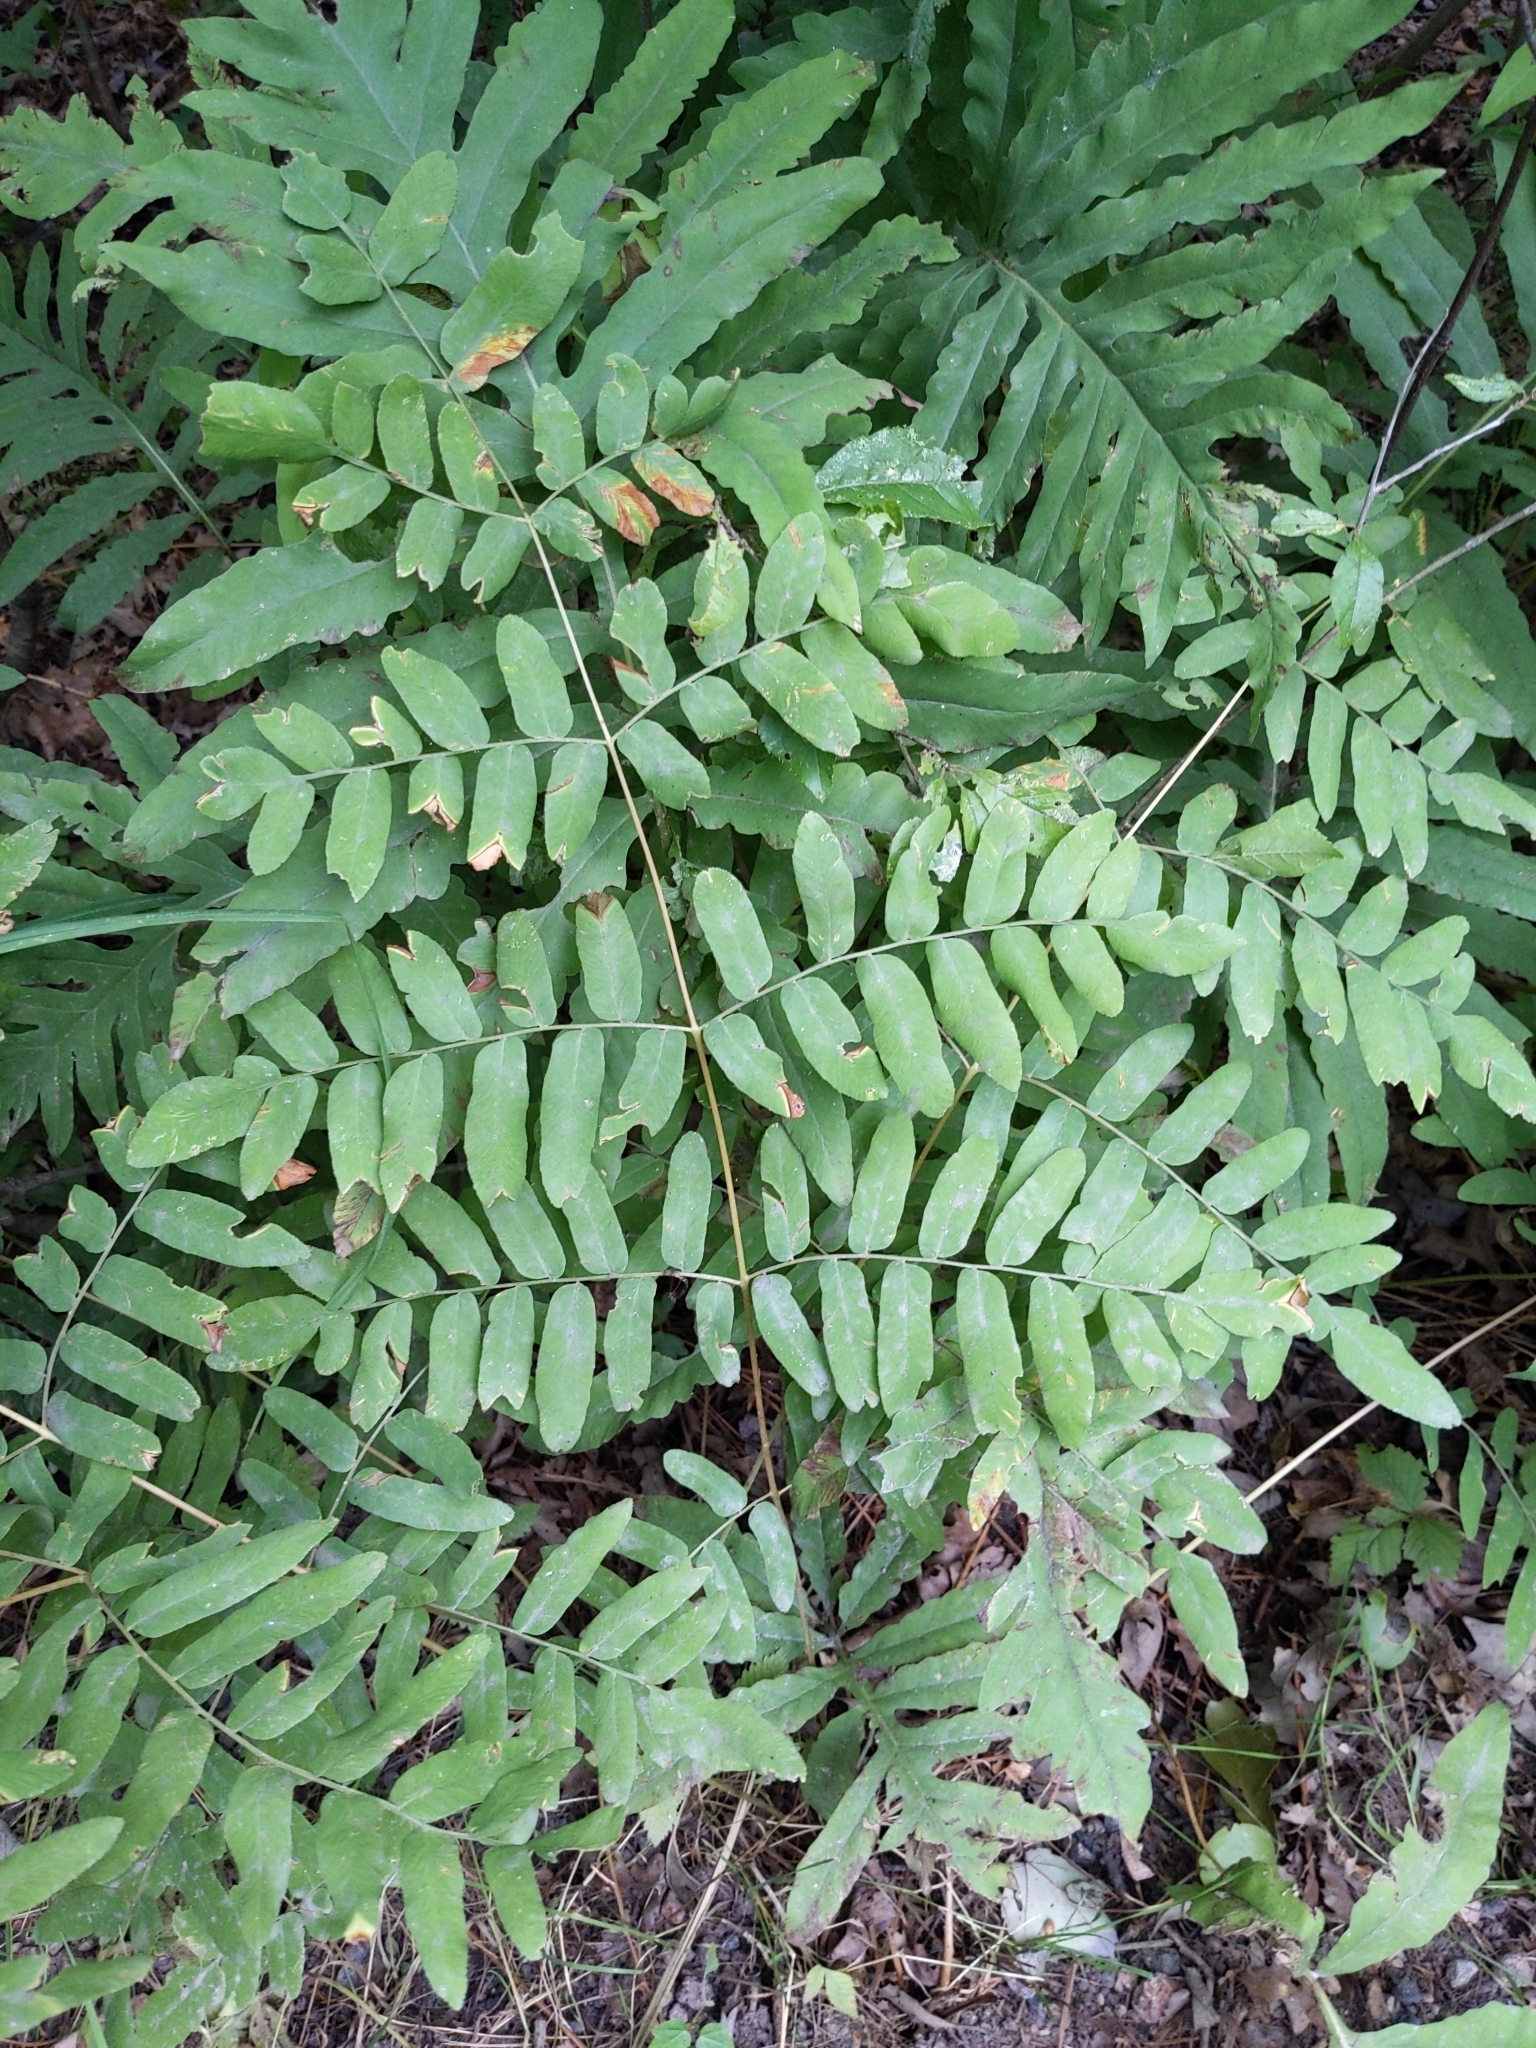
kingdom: Plantae
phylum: Tracheophyta
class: Polypodiopsida
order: Osmundales
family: Osmundaceae
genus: Osmunda
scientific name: Osmunda spectabilis
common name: American royal fern
